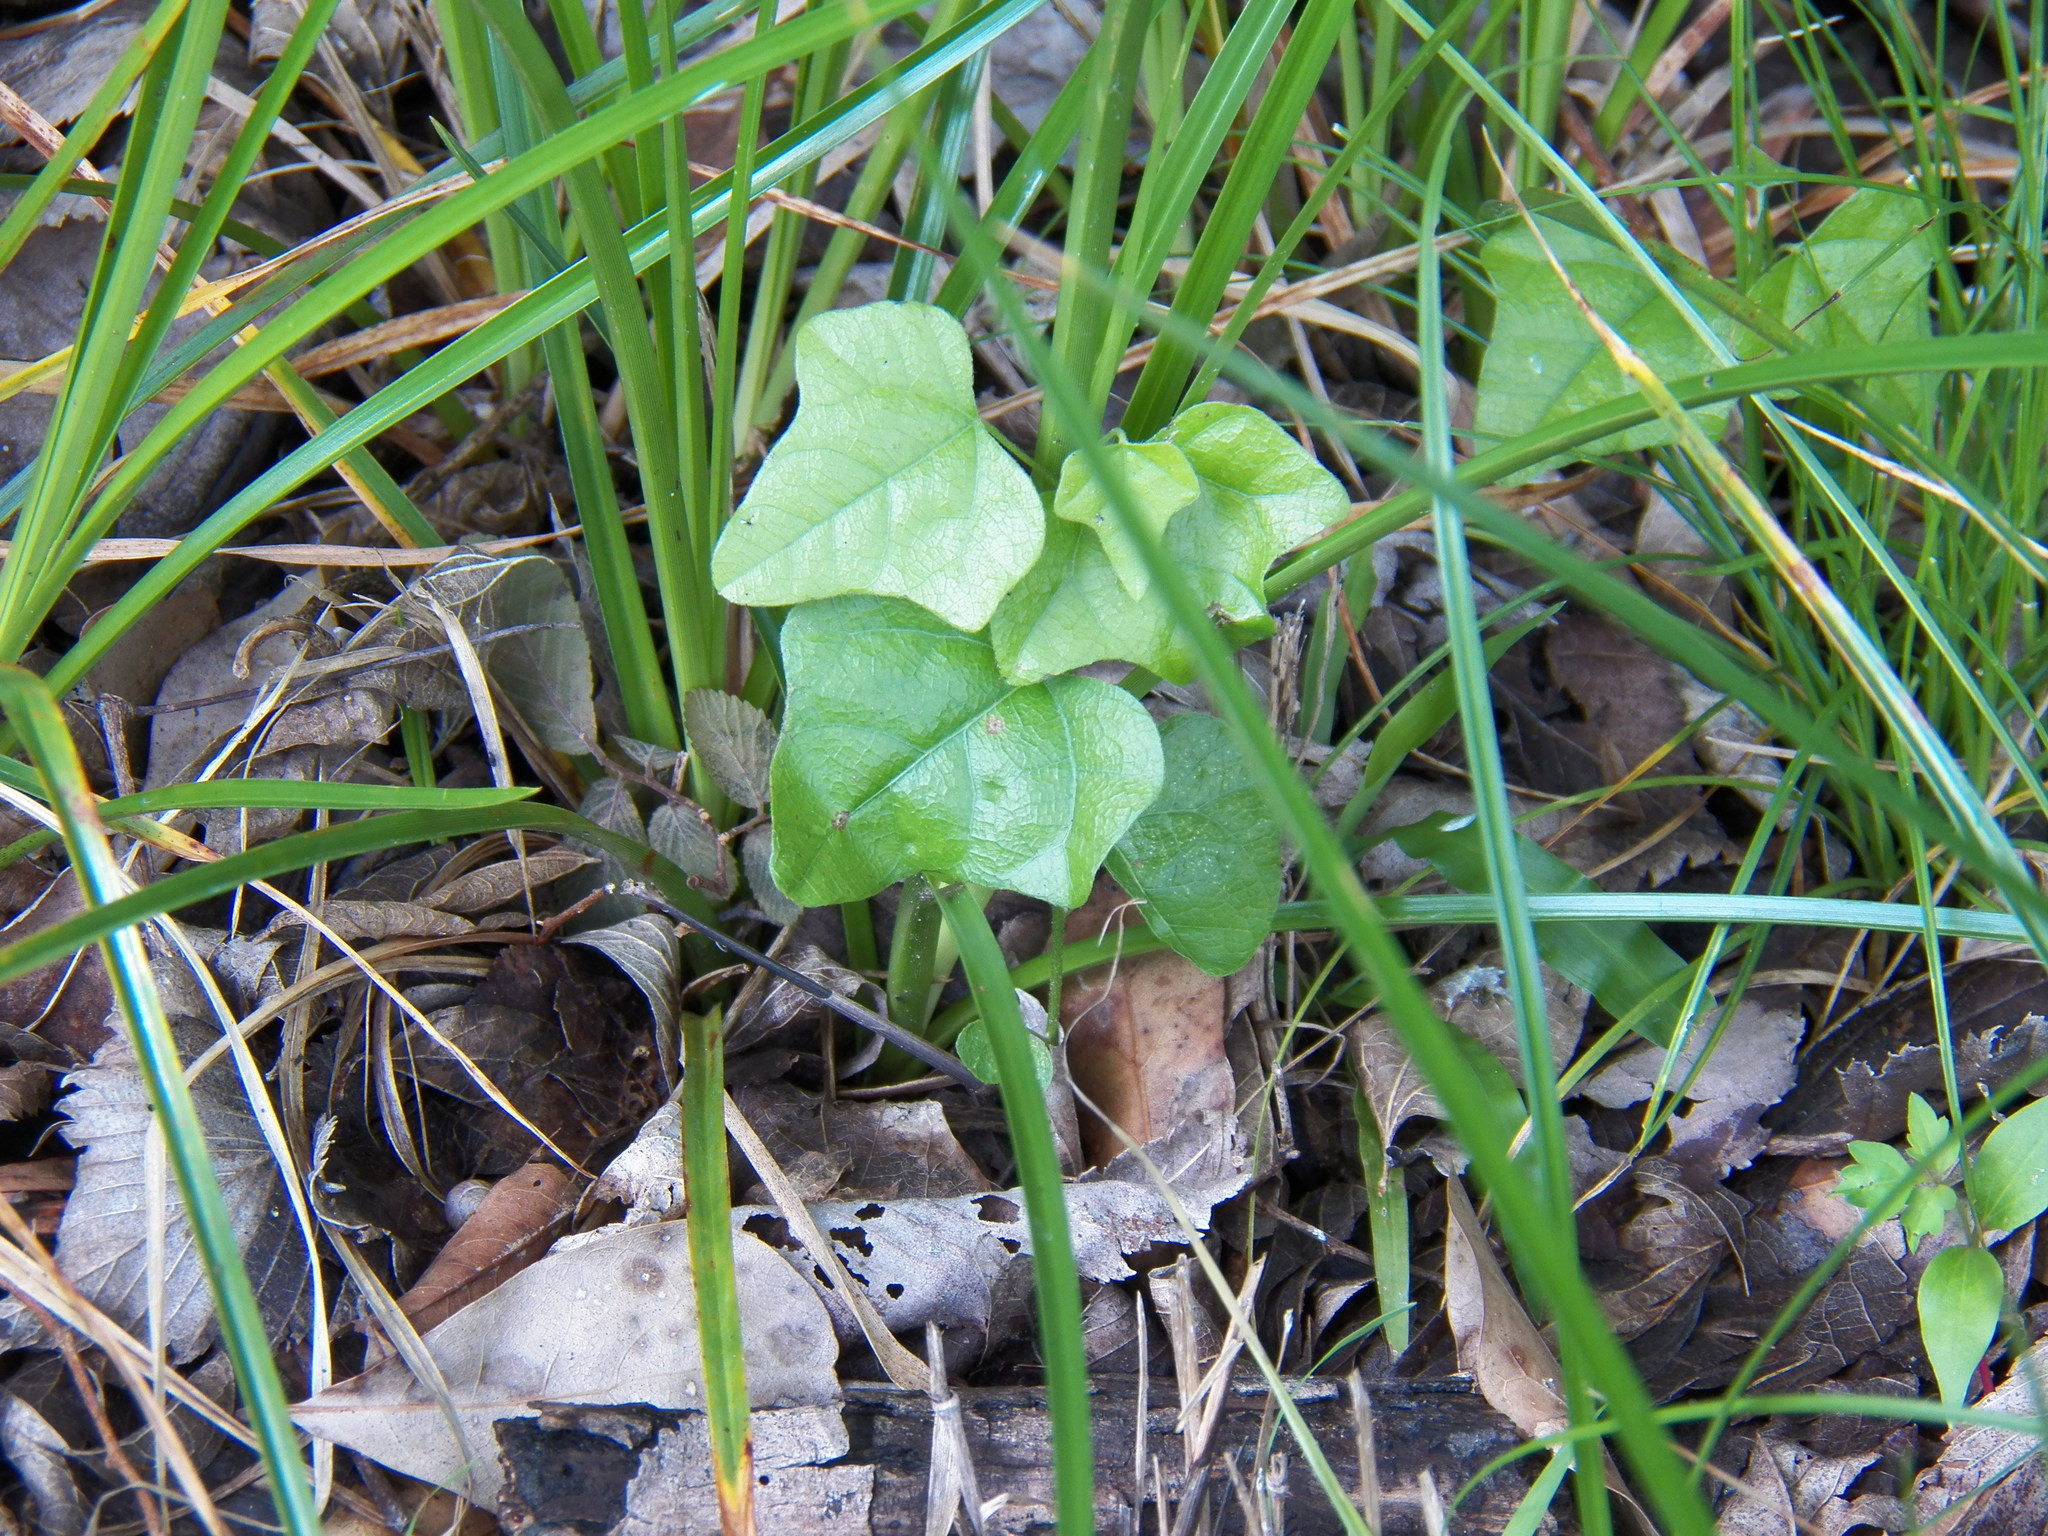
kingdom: Plantae
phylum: Tracheophyta
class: Magnoliopsida
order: Ranunculales
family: Menispermaceae
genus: Cocculus
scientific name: Cocculus carolinus
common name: Carolina moonseed
